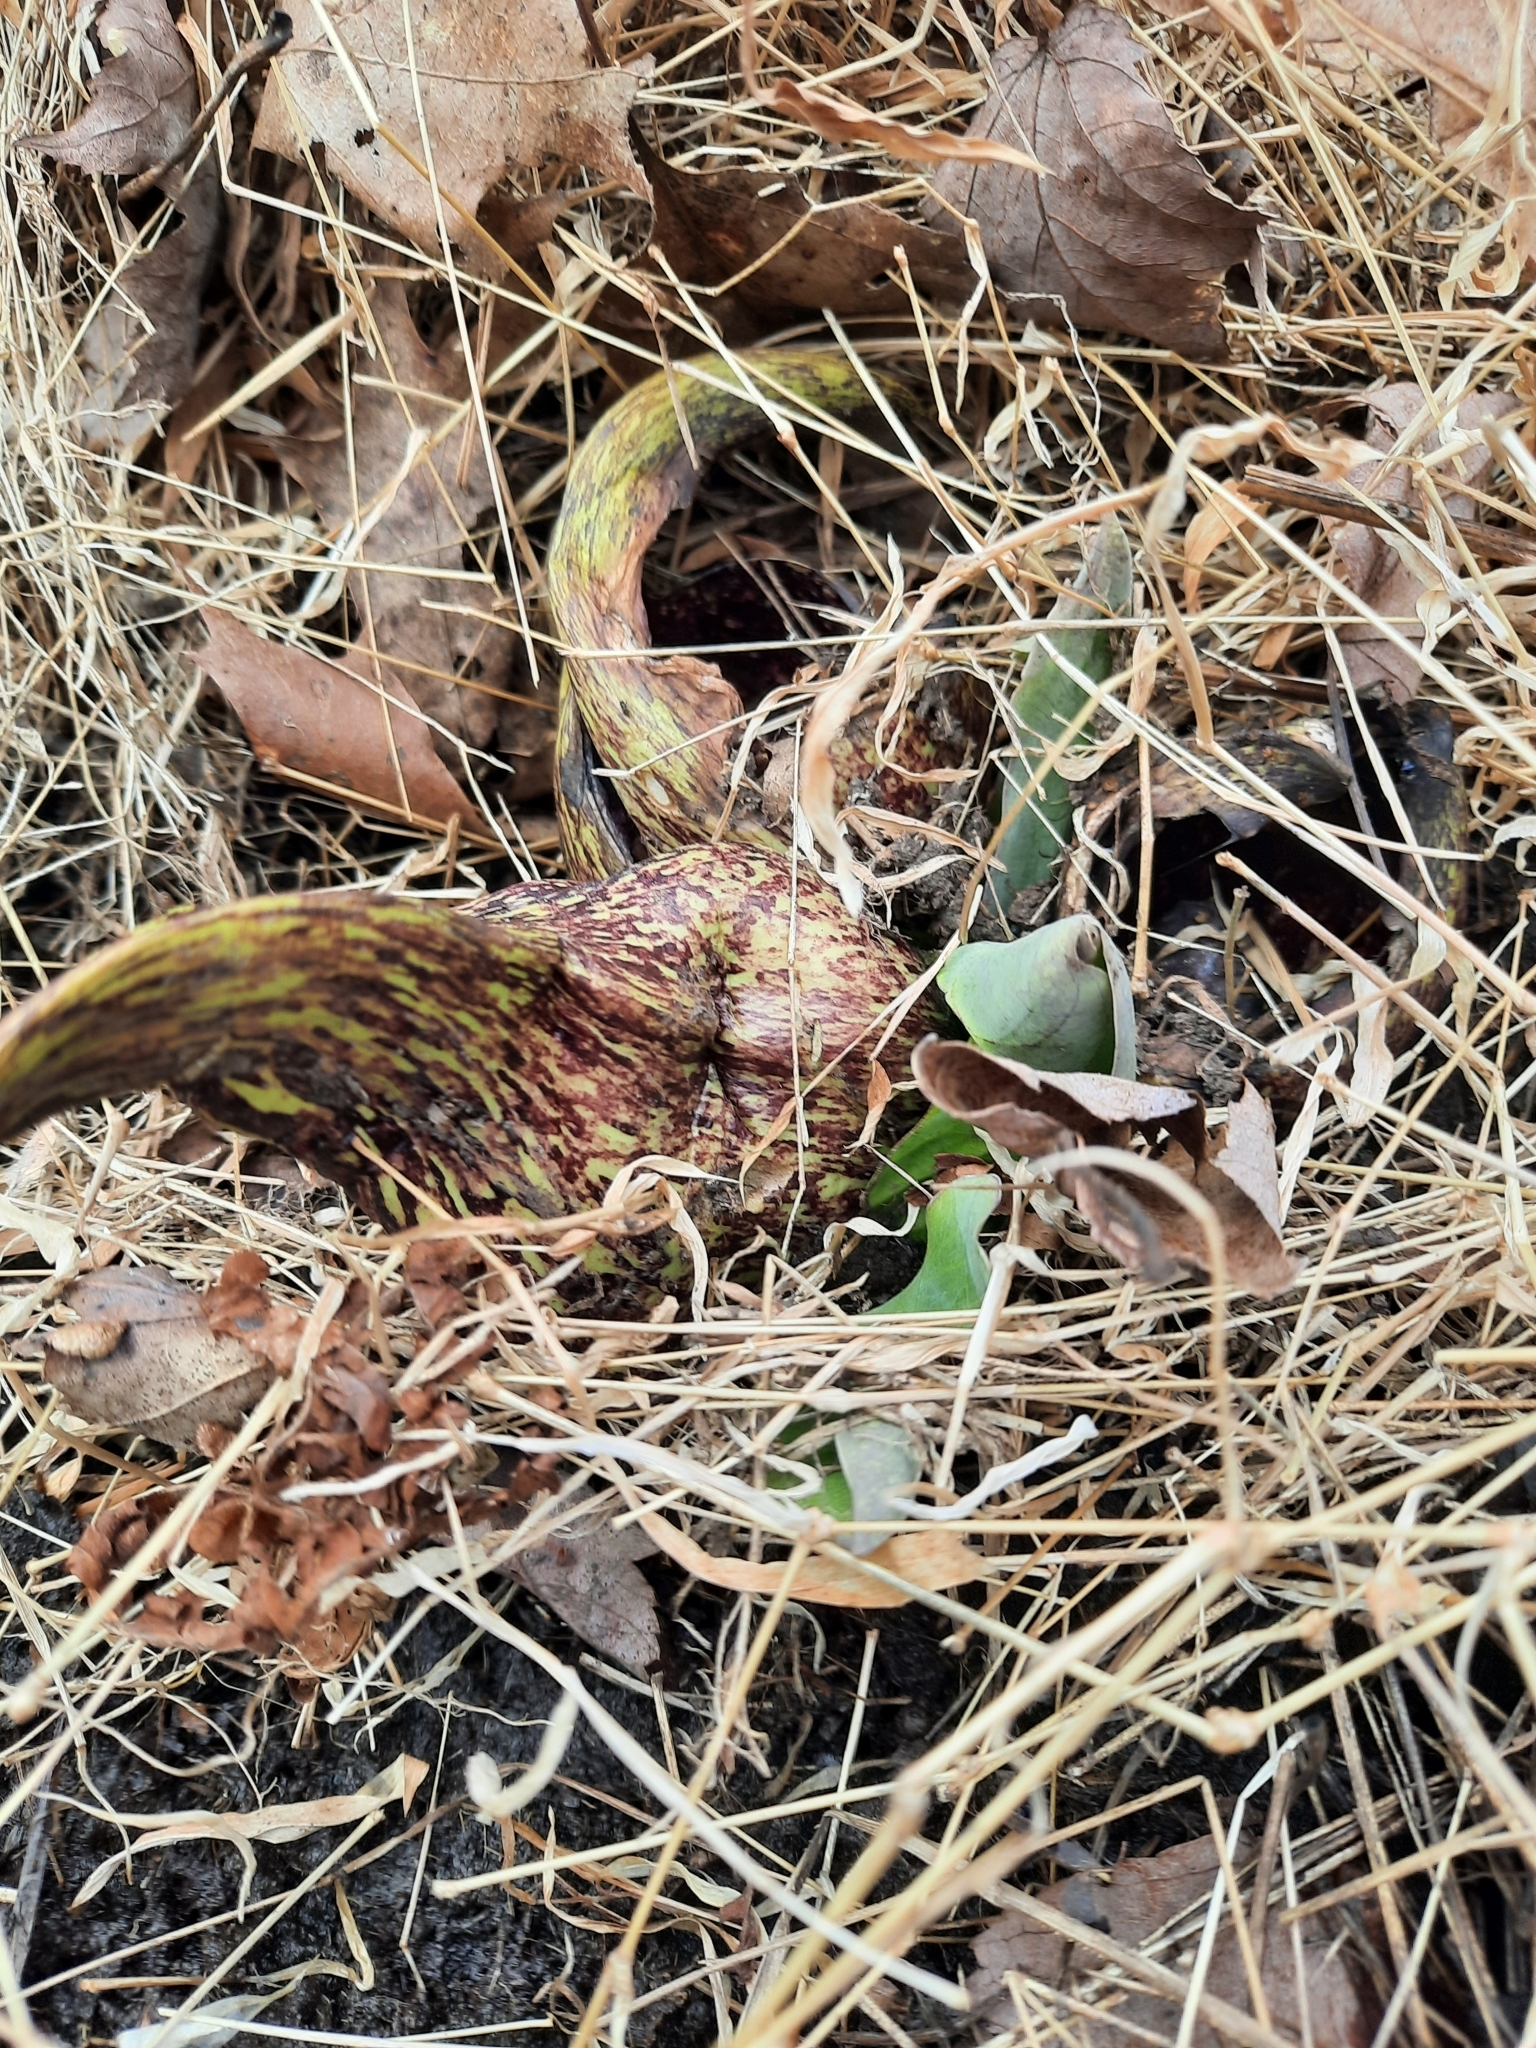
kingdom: Plantae
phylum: Tracheophyta
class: Liliopsida
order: Alismatales
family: Araceae
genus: Symplocarpus
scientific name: Symplocarpus foetidus
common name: Eastern skunk cabbage
